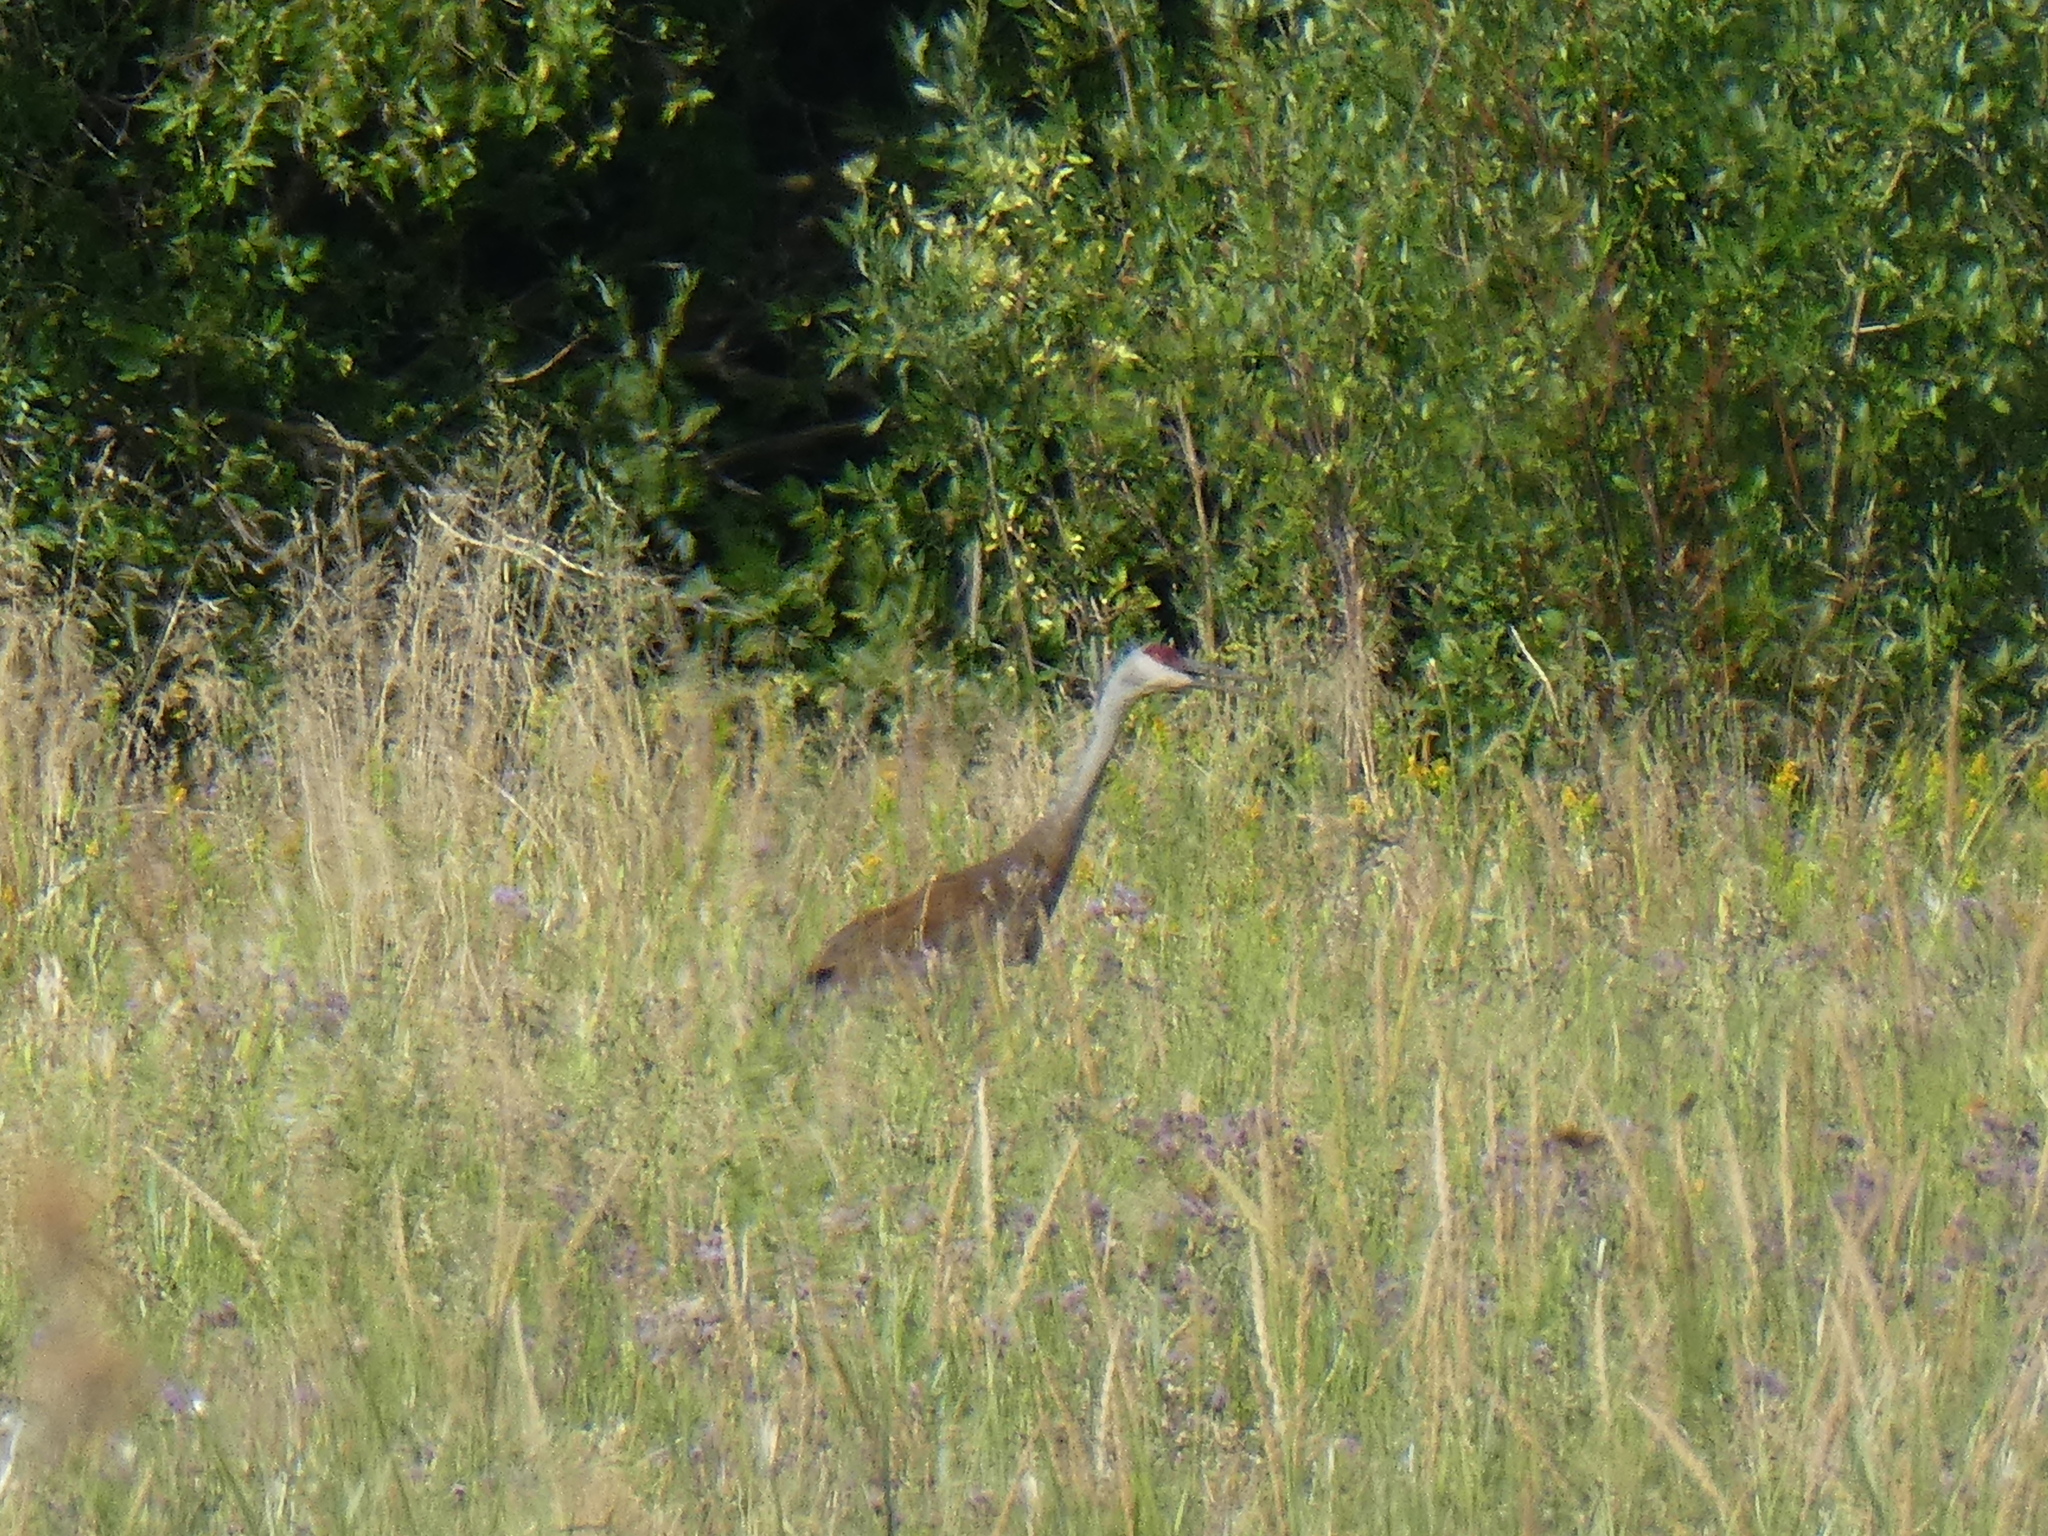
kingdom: Animalia
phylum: Chordata
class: Aves
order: Gruiformes
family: Gruidae
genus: Grus
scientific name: Grus canadensis
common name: Sandhill crane
